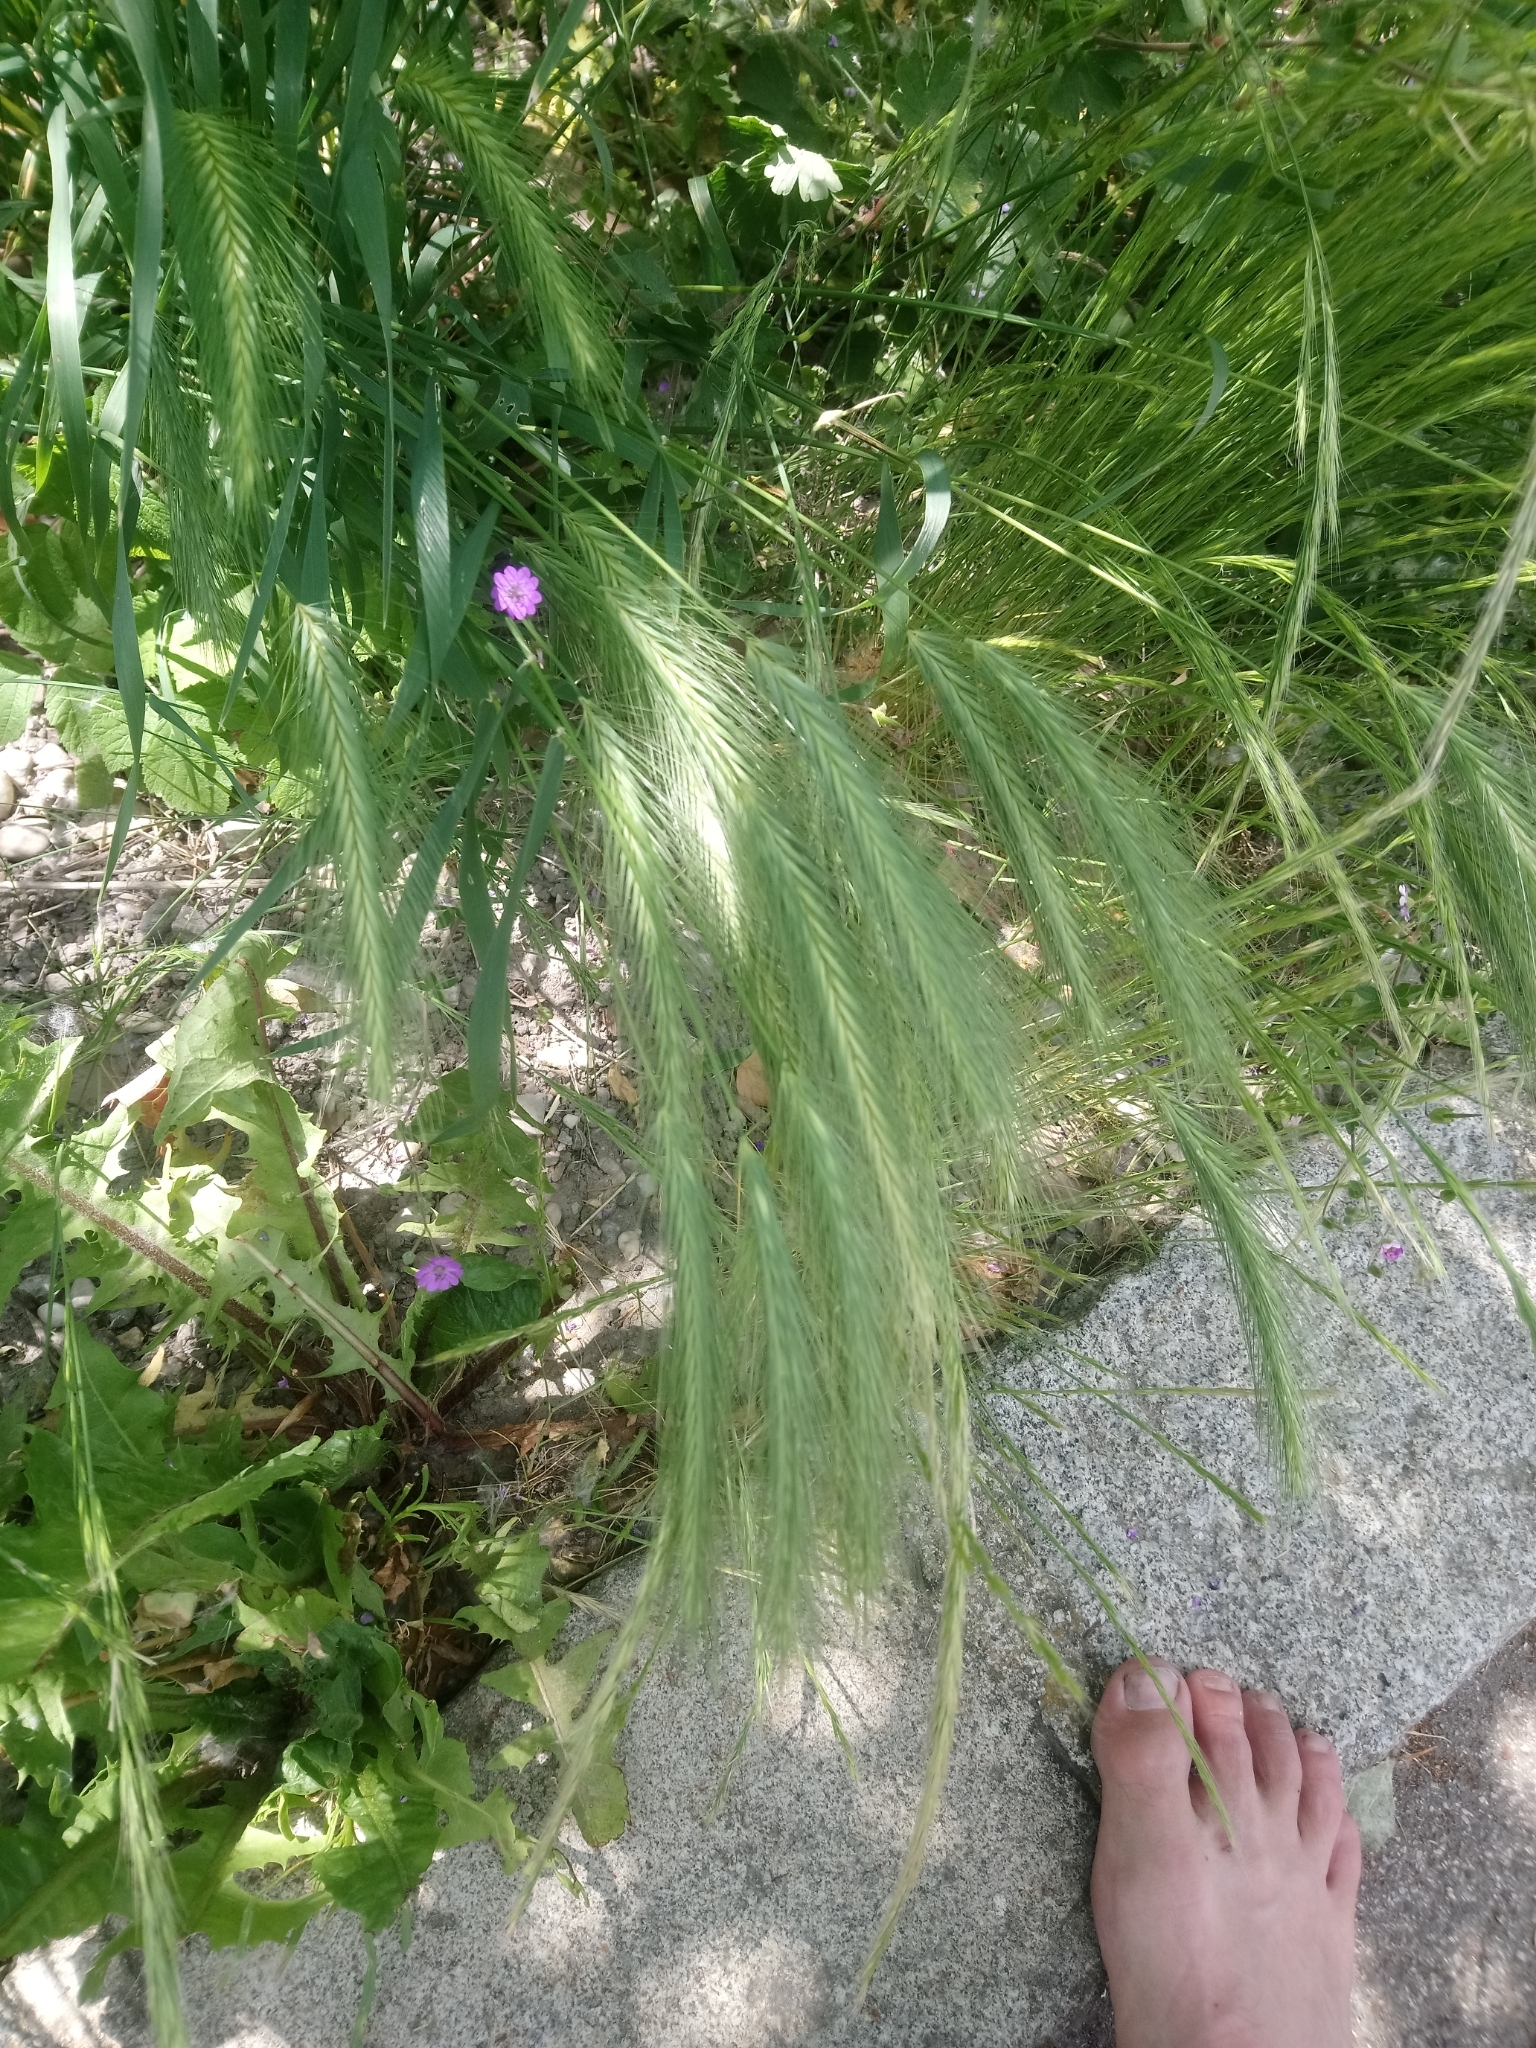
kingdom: Plantae
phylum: Tracheophyta
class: Liliopsida
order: Poales
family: Poaceae
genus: Hordeum
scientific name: Hordeum murinum
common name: Wall barley
